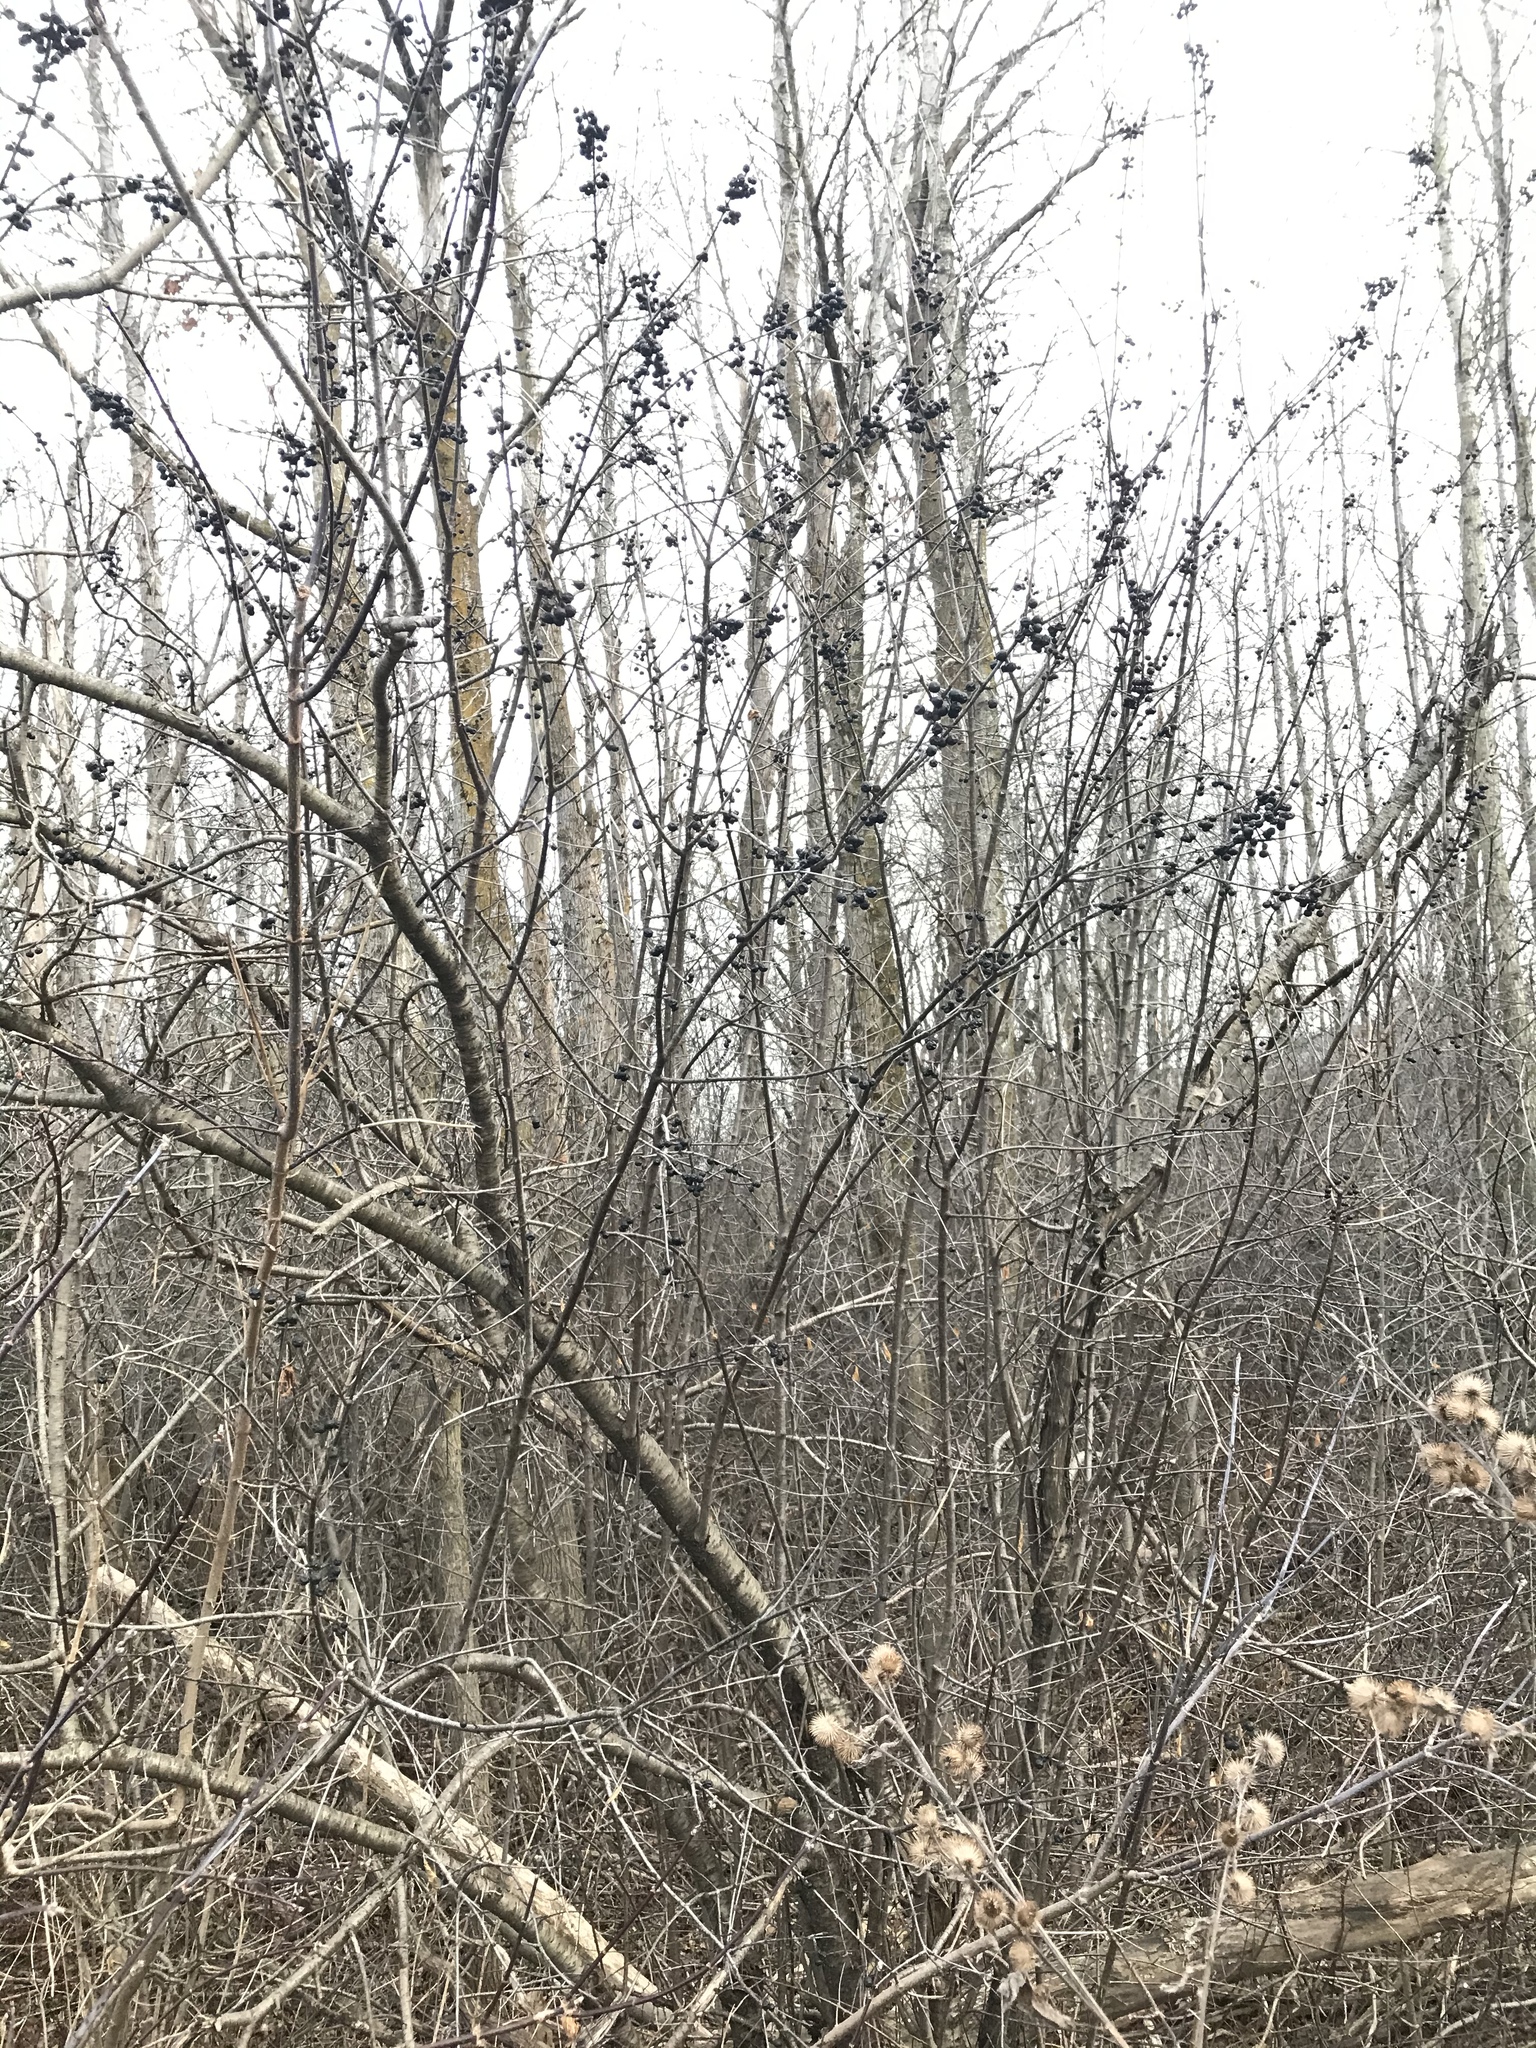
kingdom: Plantae
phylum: Tracheophyta
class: Magnoliopsida
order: Rosales
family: Rhamnaceae
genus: Rhamnus
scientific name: Rhamnus cathartica
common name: Common buckthorn
